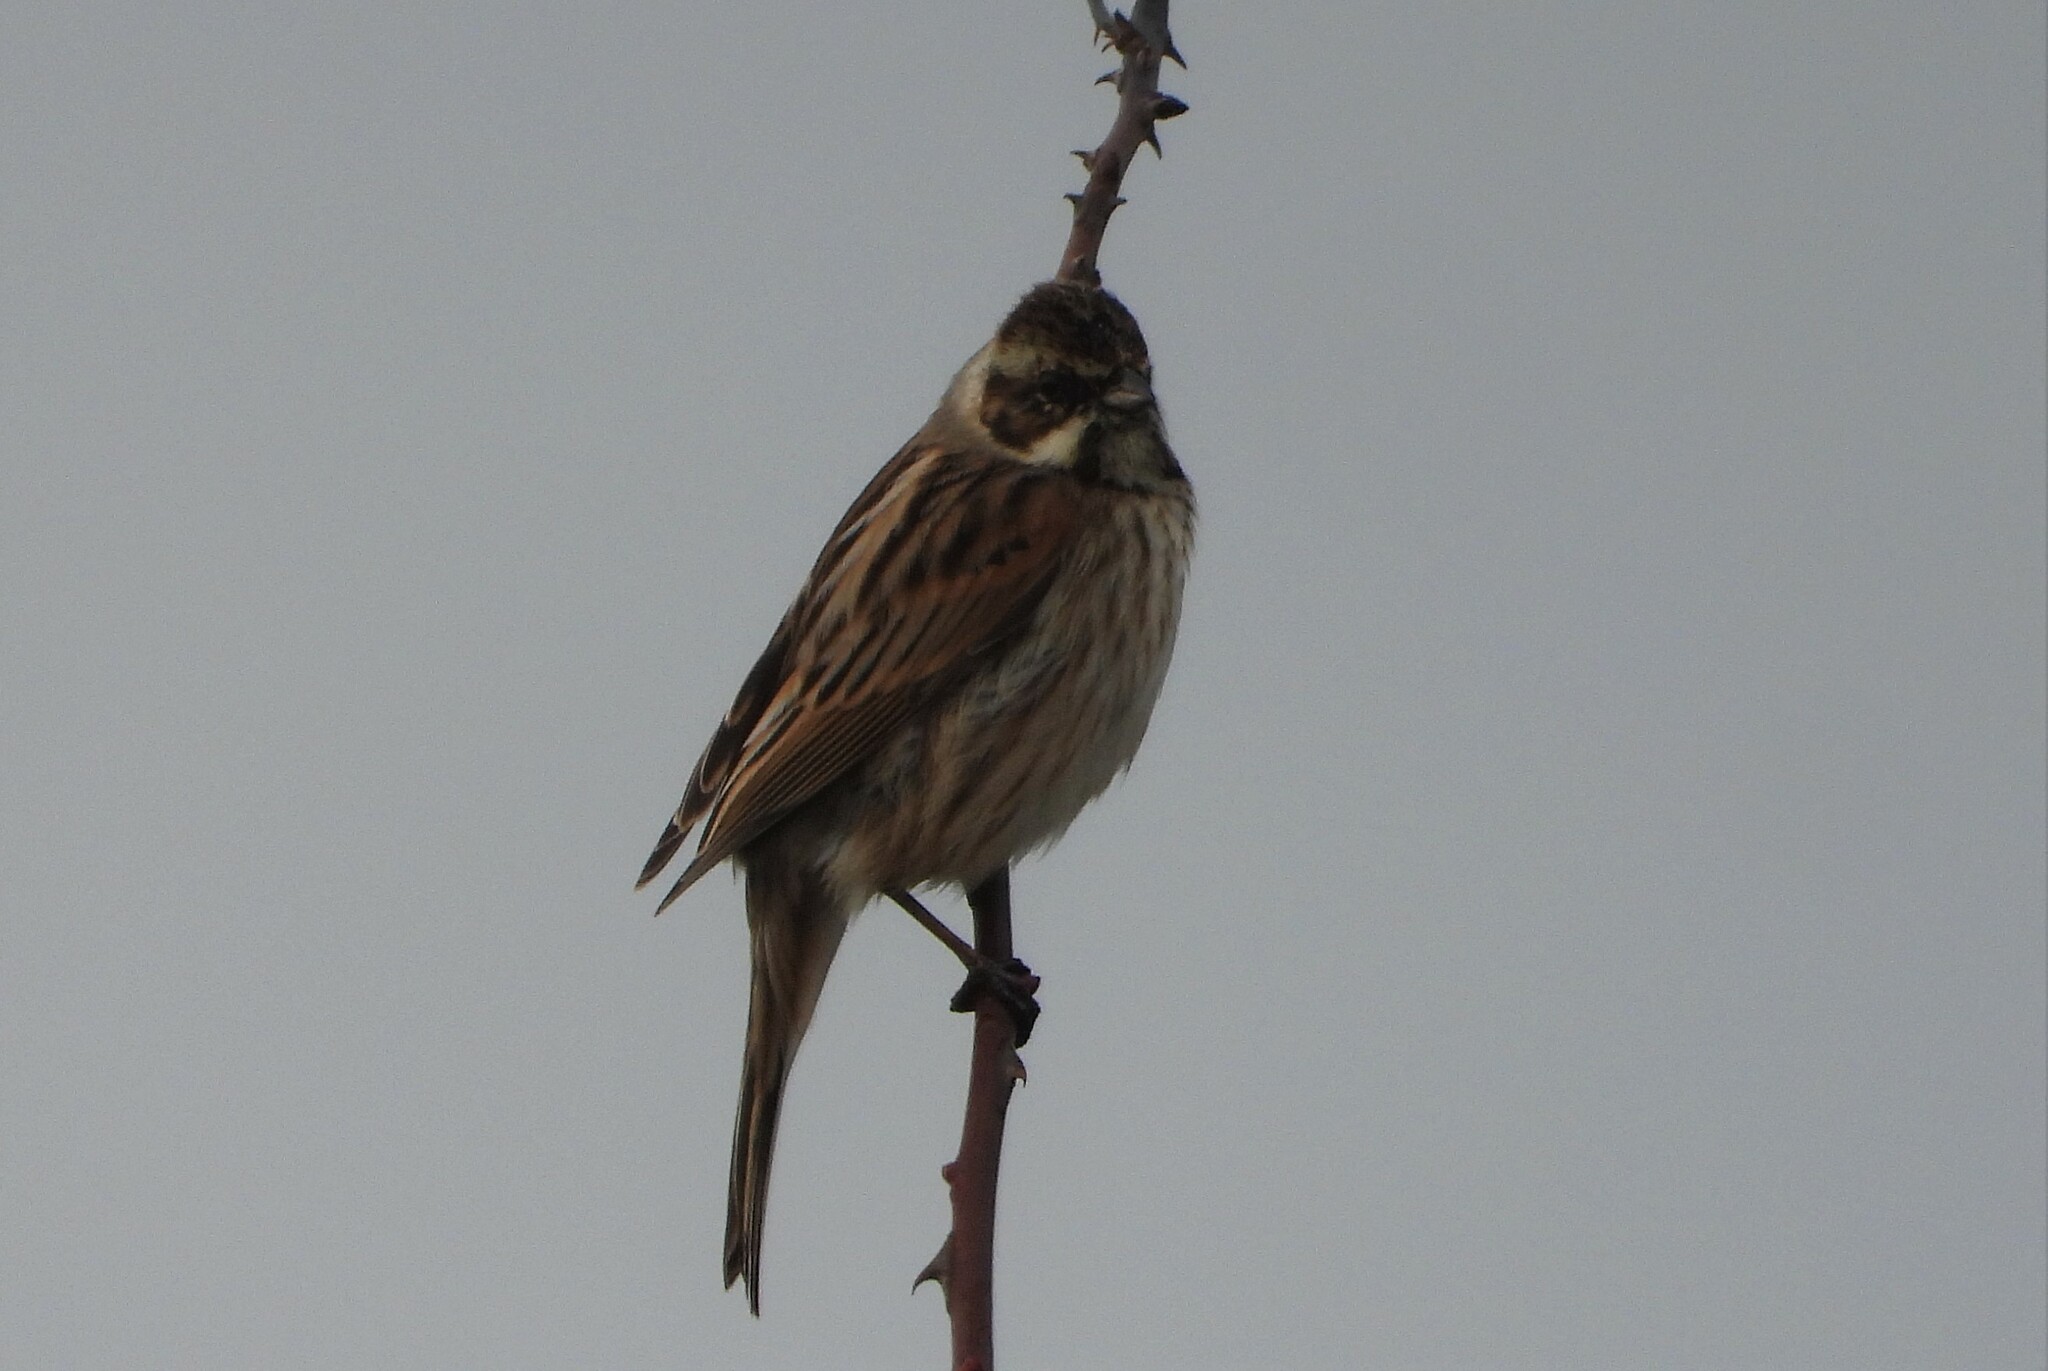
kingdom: Animalia
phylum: Chordata
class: Aves
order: Passeriformes
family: Emberizidae
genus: Emberiza
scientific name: Emberiza schoeniclus
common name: Reed bunting
